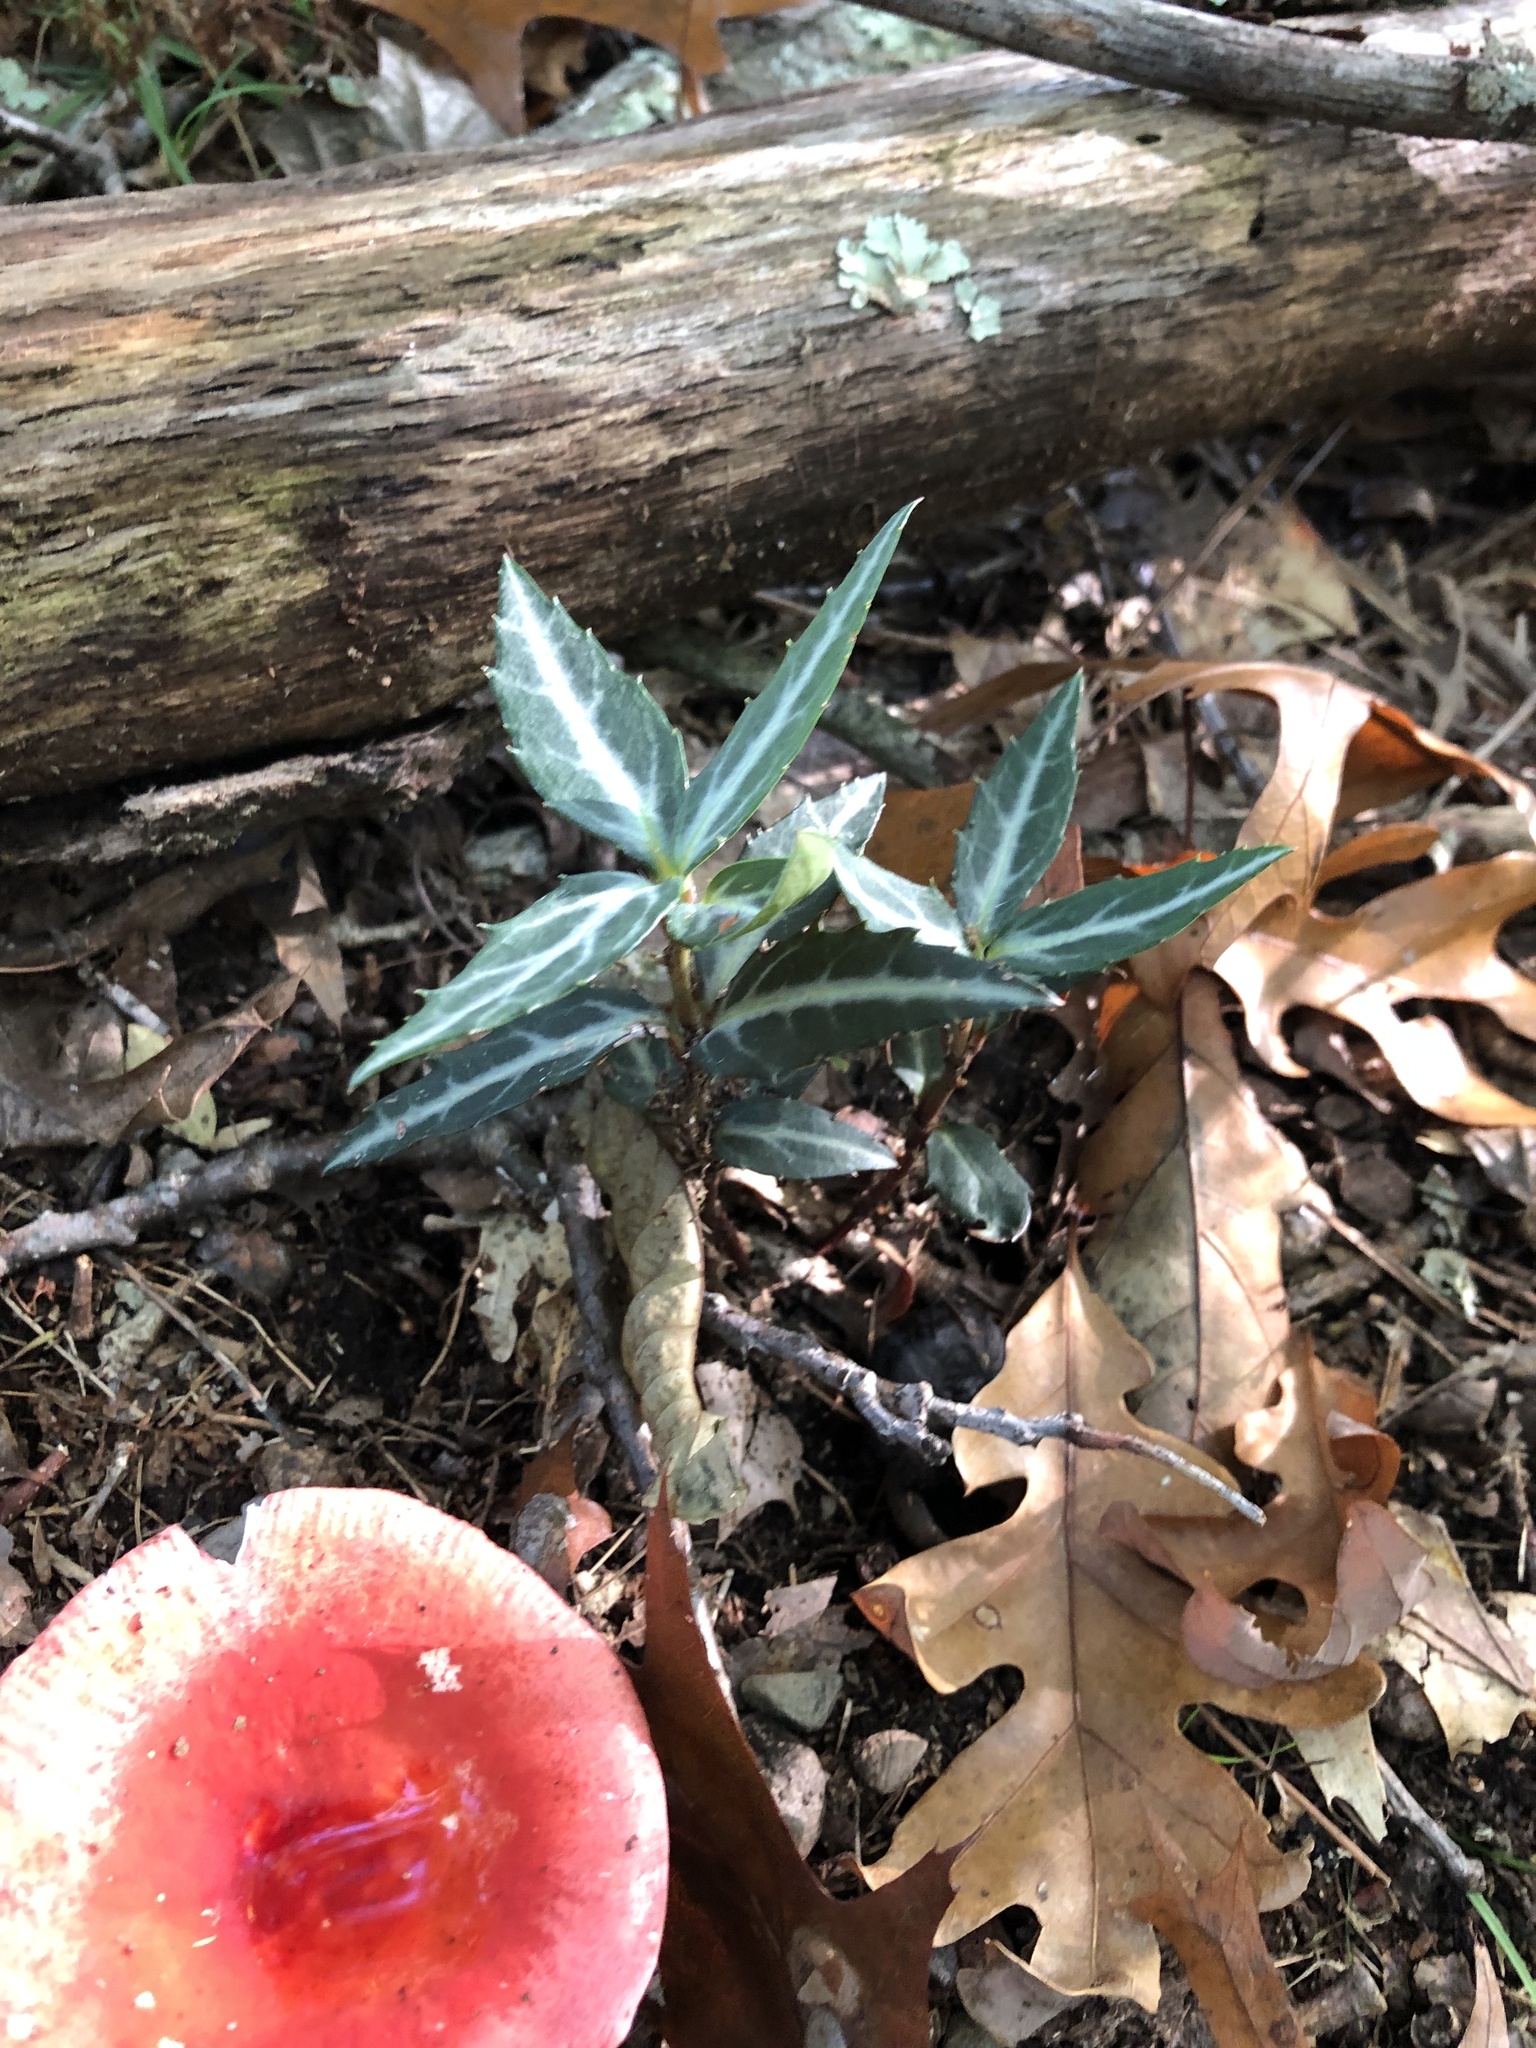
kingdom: Plantae
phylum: Tracheophyta
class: Magnoliopsida
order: Ericales
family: Ericaceae
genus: Chimaphila
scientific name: Chimaphila maculata
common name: Spotted pipsissewa
